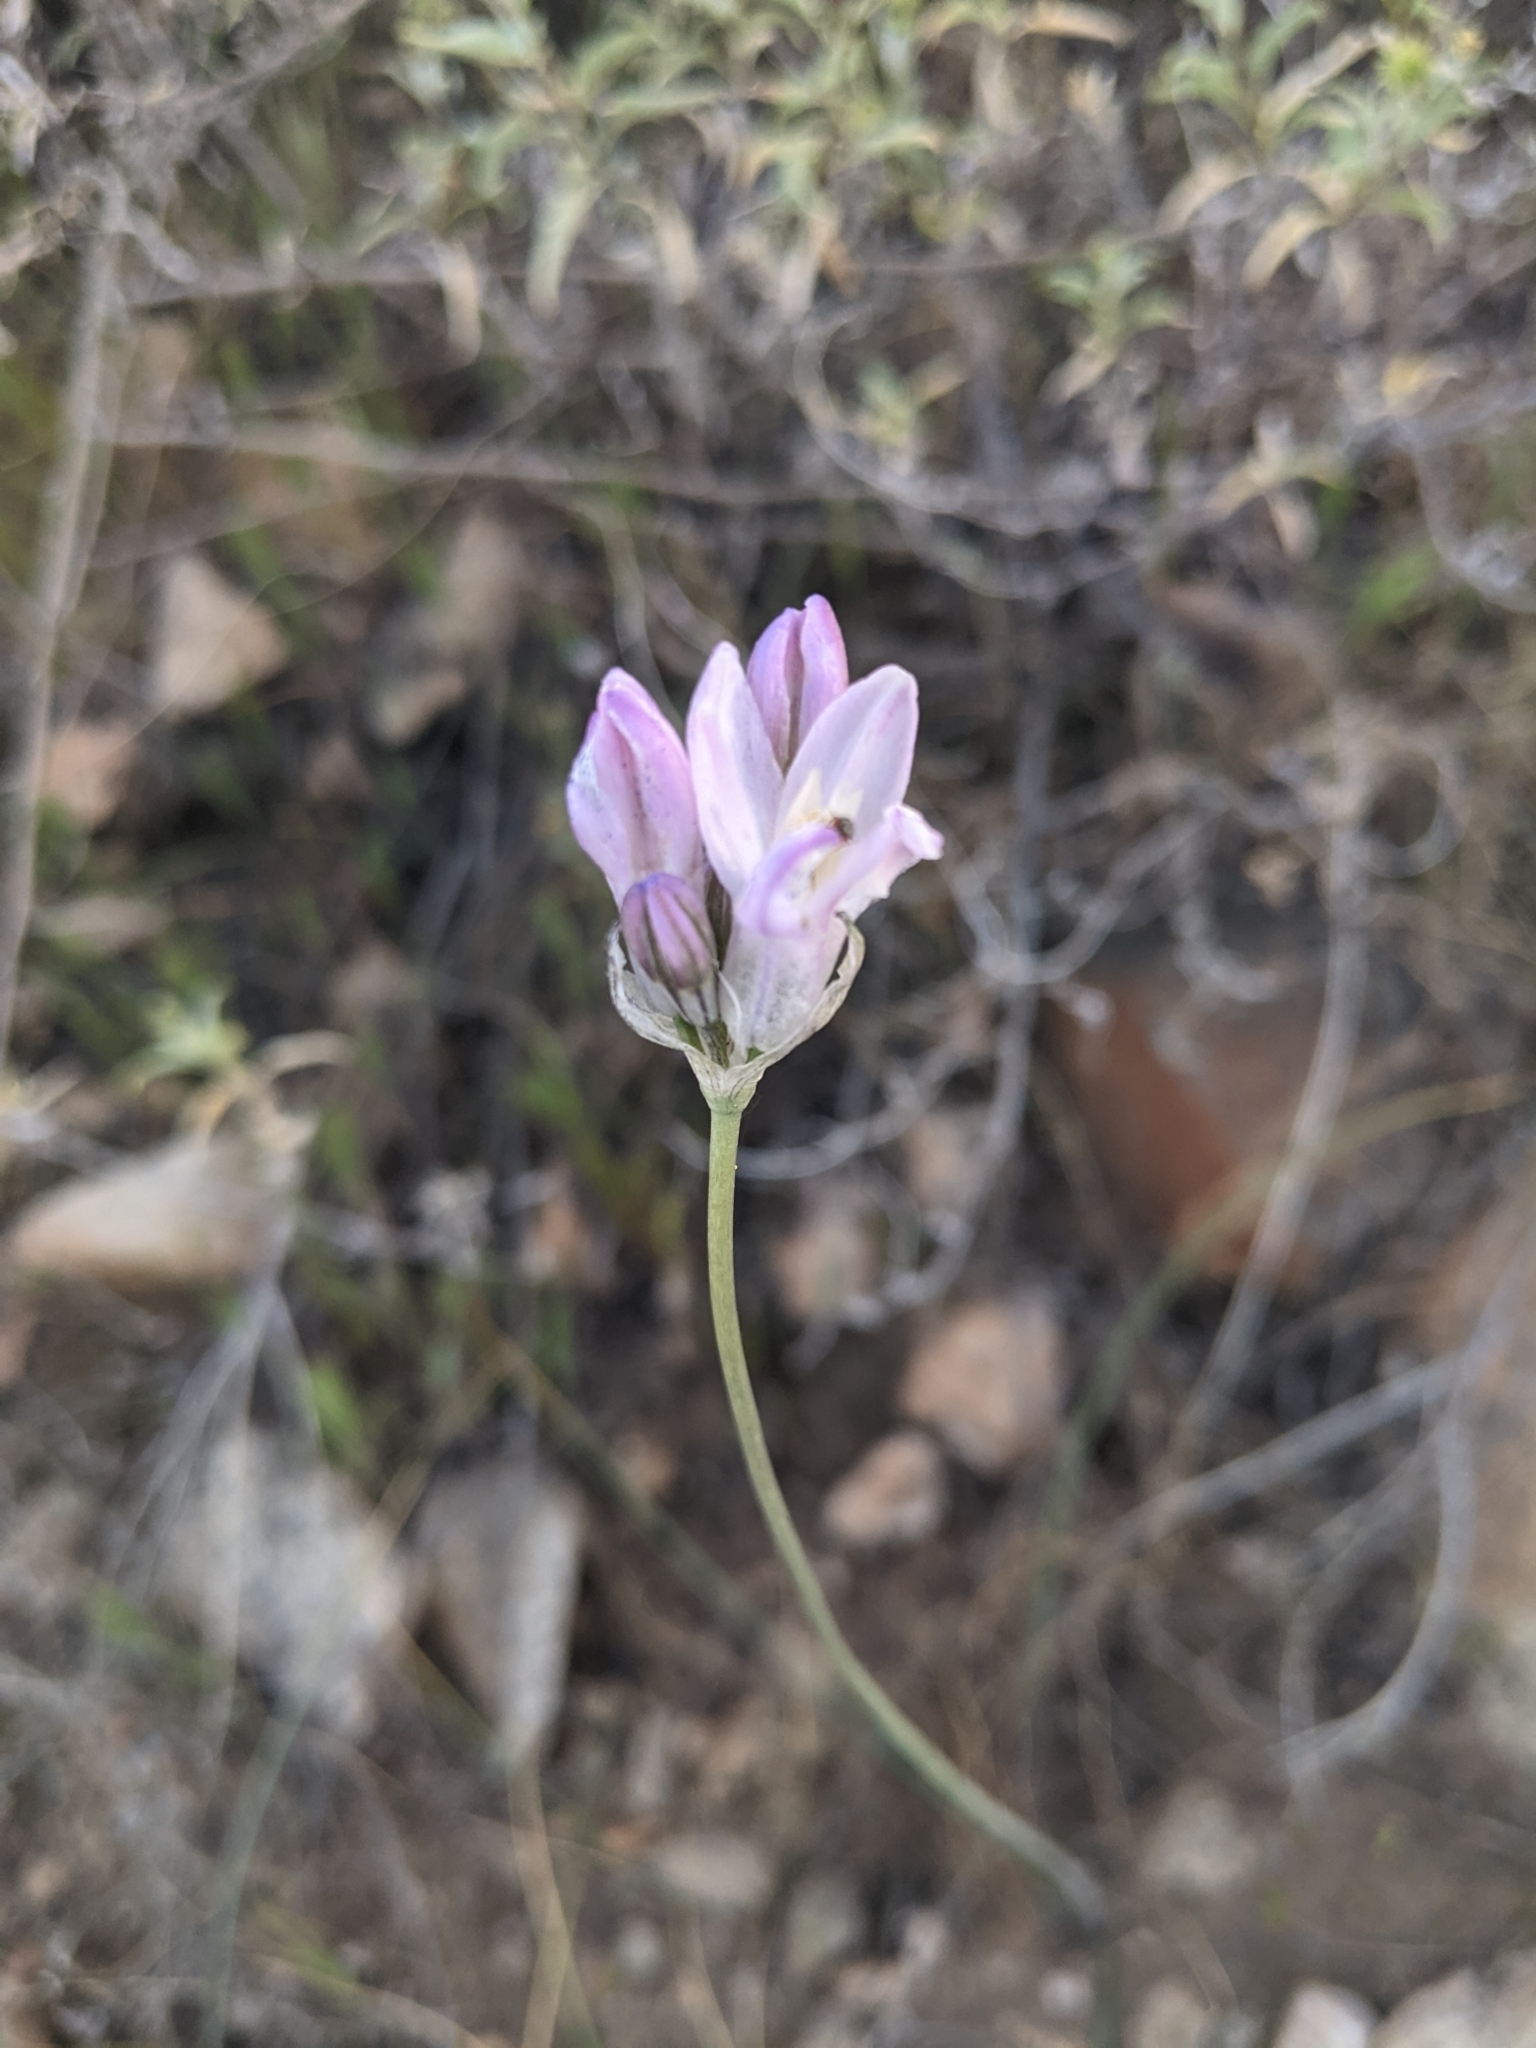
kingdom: Plantae
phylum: Tracheophyta
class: Liliopsida
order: Asparagales
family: Asparagaceae
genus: Dipterostemon
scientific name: Dipterostemon capitatus
